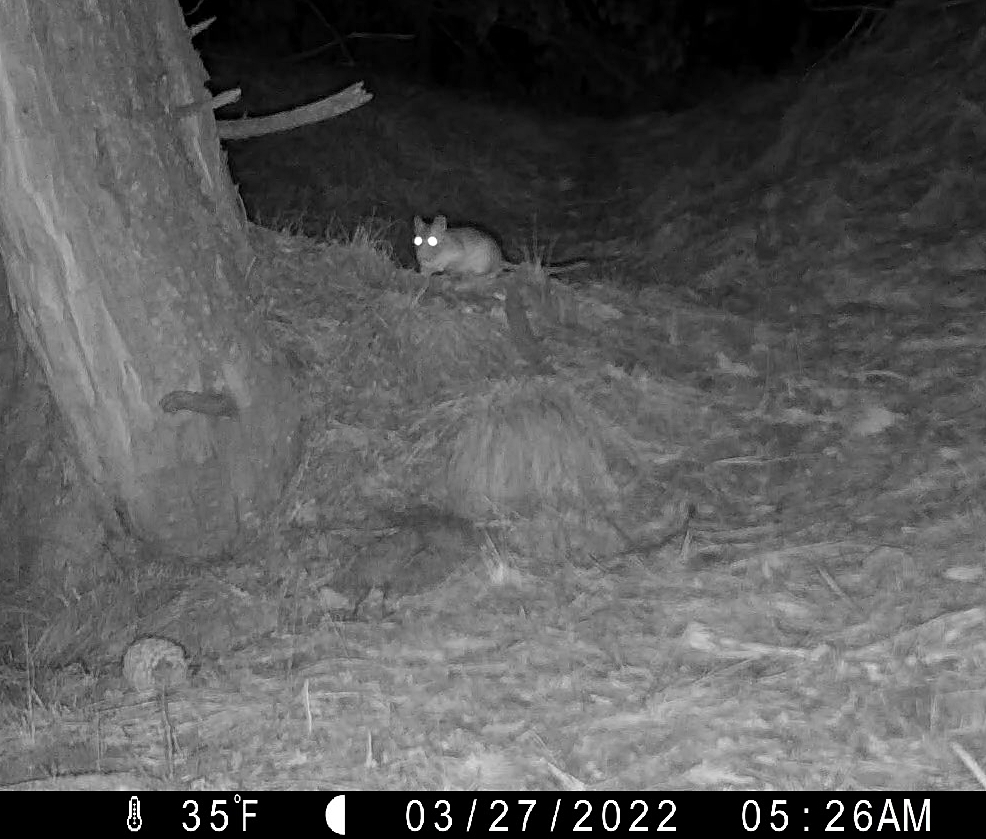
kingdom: Animalia
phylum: Chordata
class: Mammalia
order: Rodentia
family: Cricetidae
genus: Neotoma
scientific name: Neotoma cinerea
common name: Bushy-tailed woodrat
